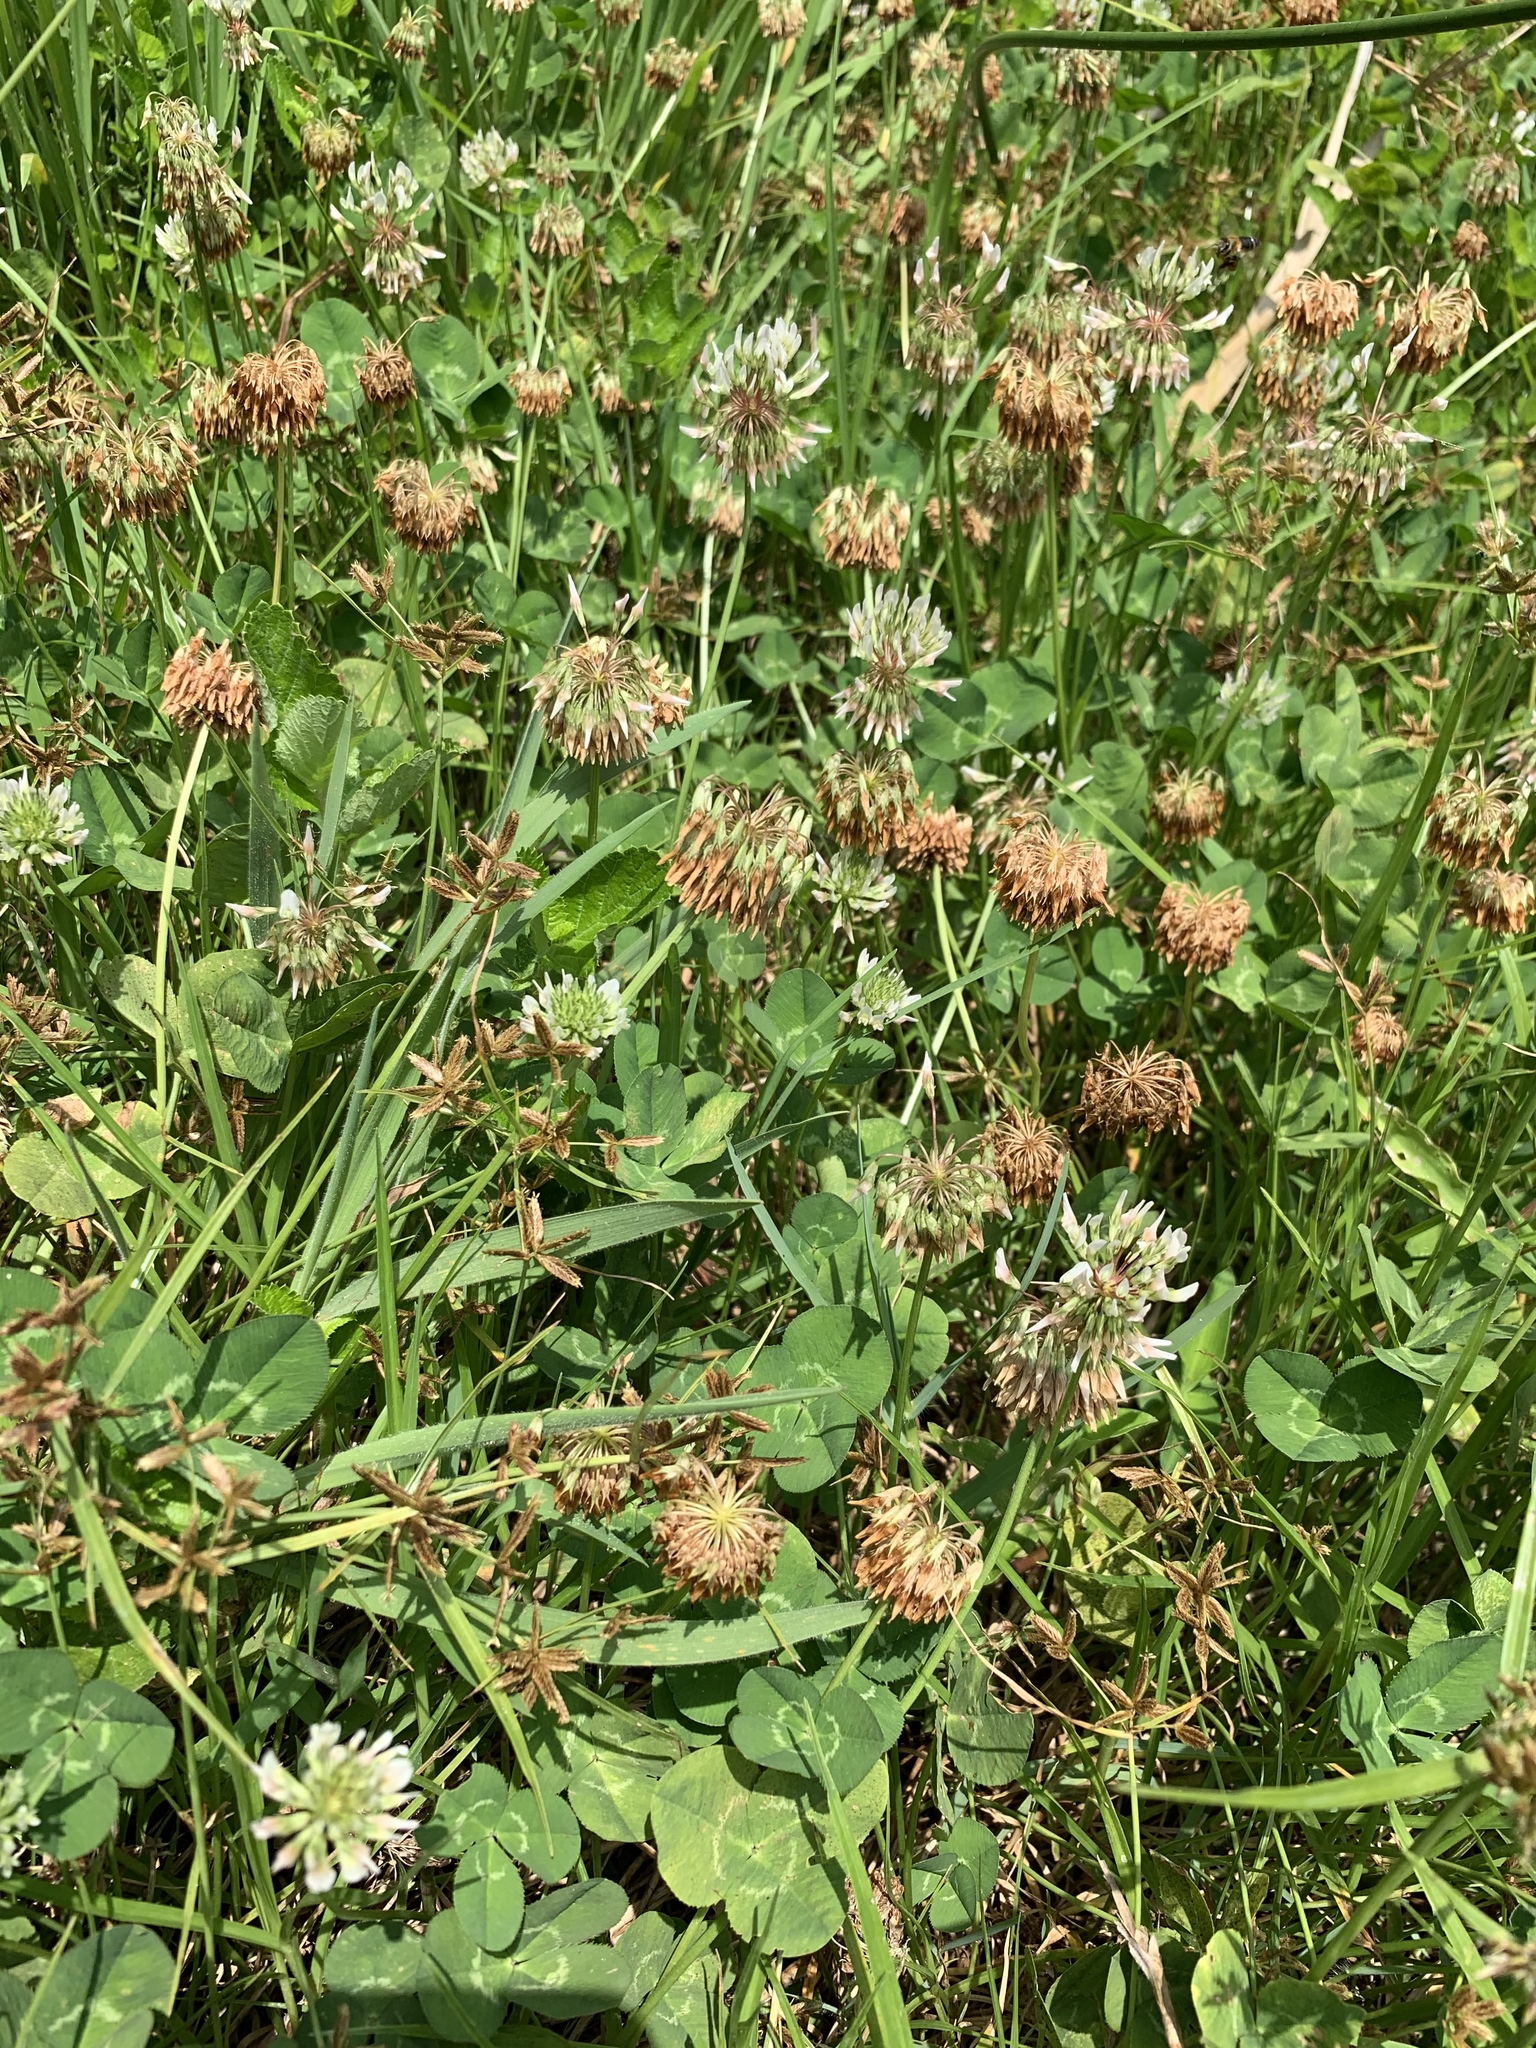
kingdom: Plantae
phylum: Tracheophyta
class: Magnoliopsida
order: Fabales
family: Fabaceae
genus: Trifolium
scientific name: Trifolium repens
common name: White clover
